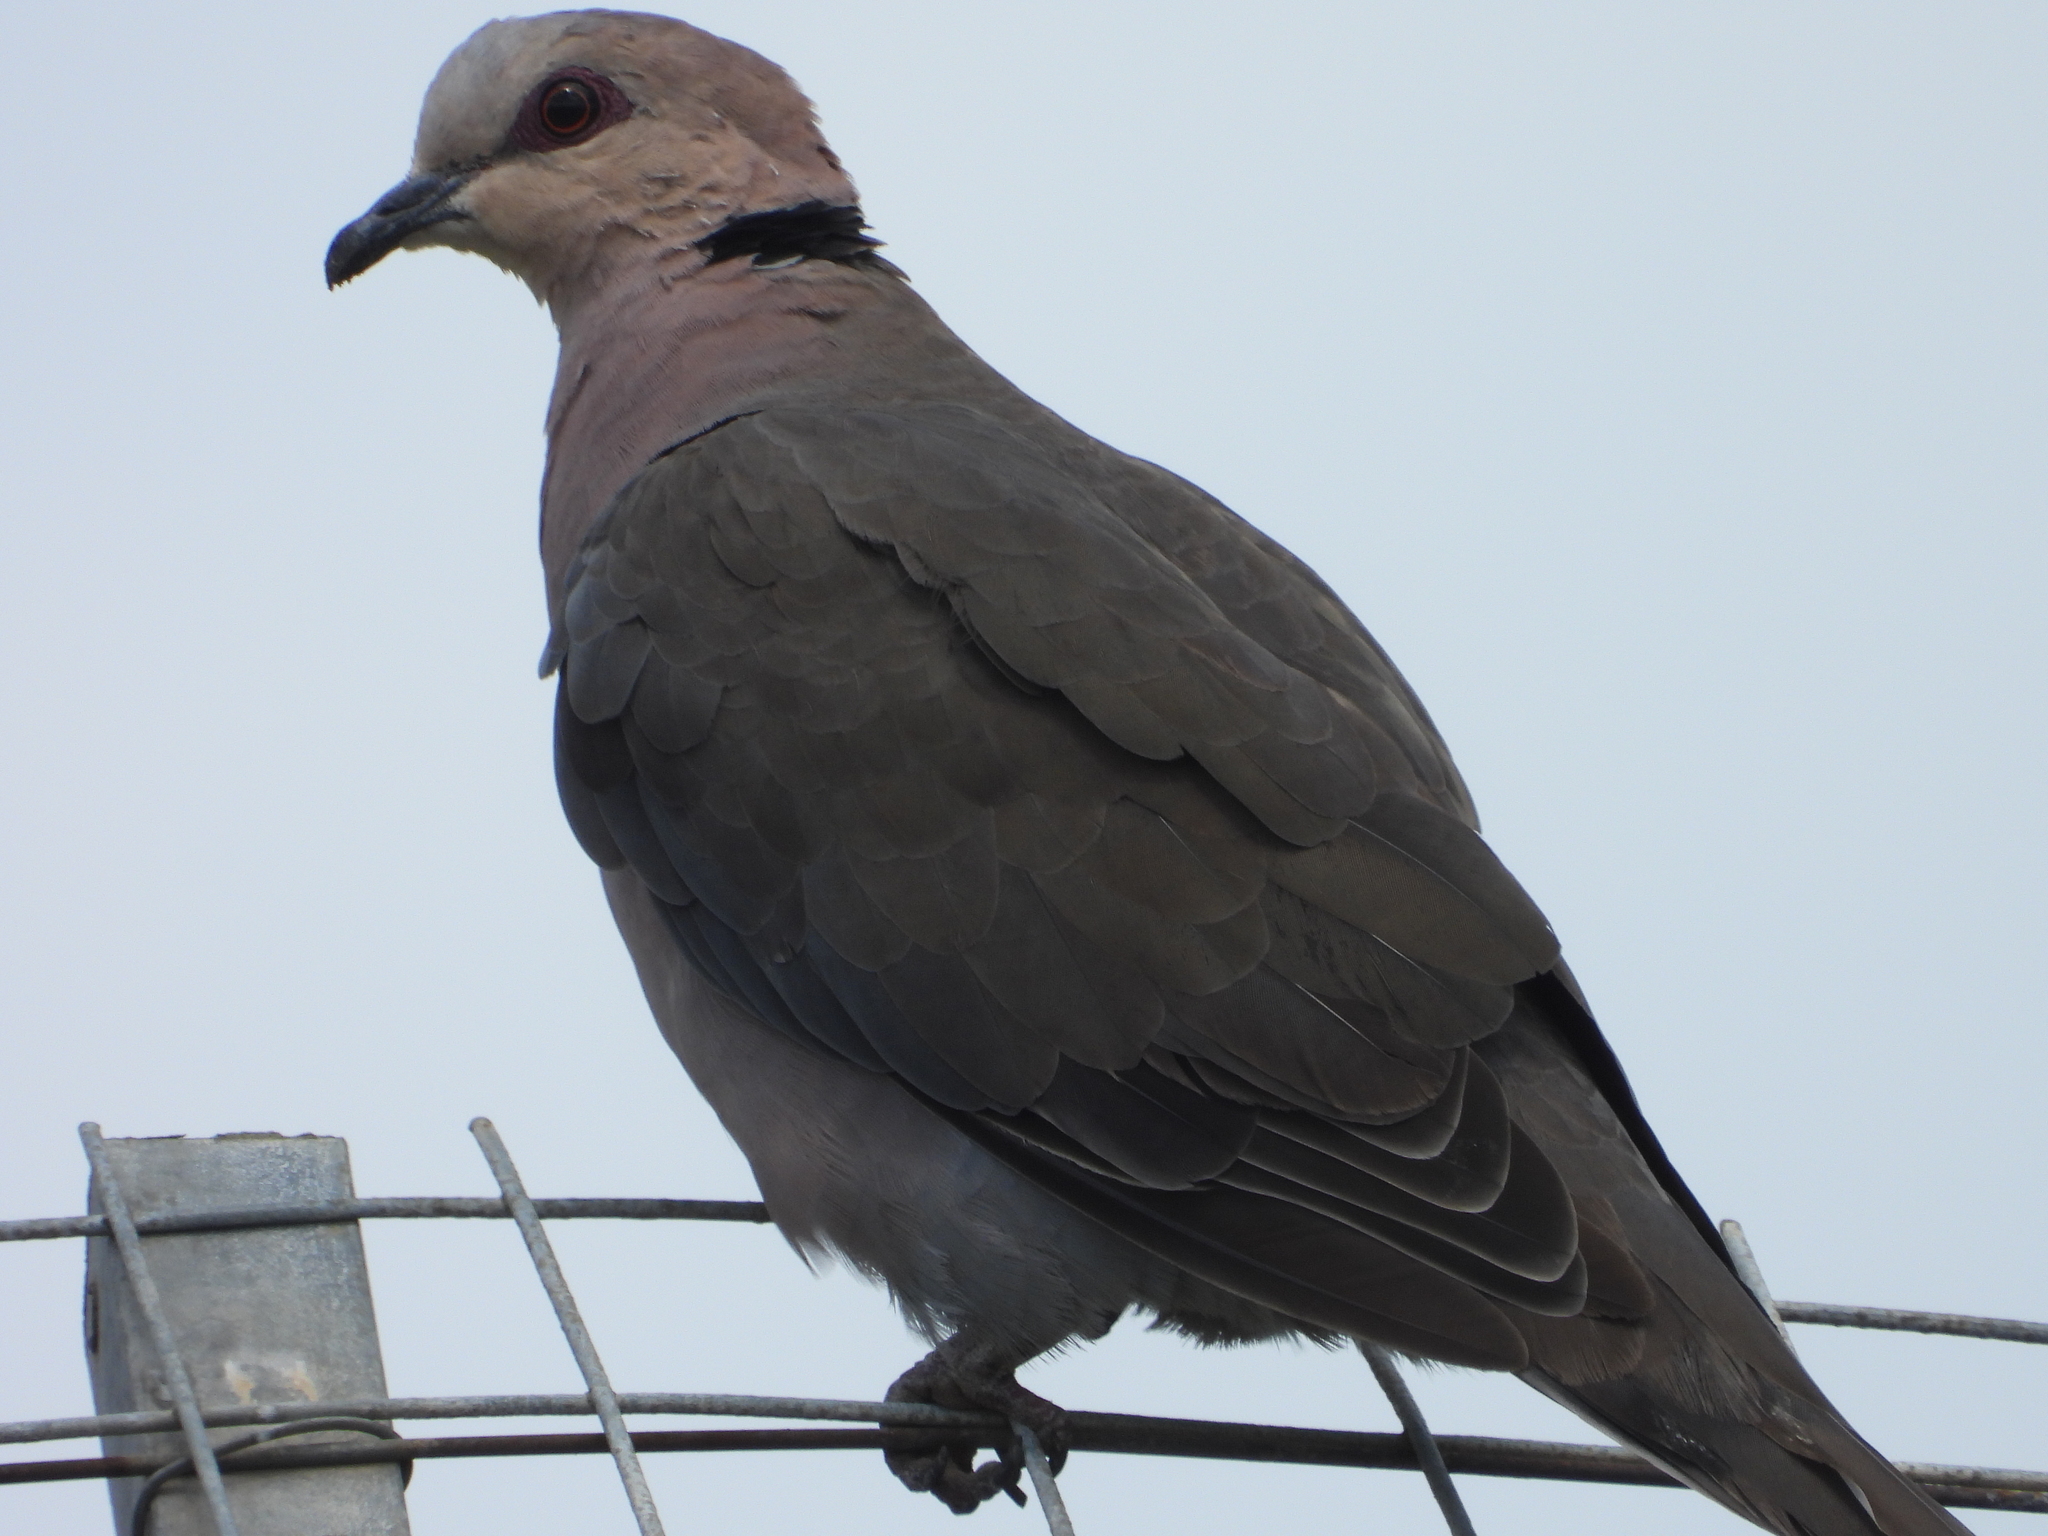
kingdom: Animalia
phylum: Chordata
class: Aves
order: Columbiformes
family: Columbidae
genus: Streptopelia
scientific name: Streptopelia semitorquata
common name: Red-eyed dove
